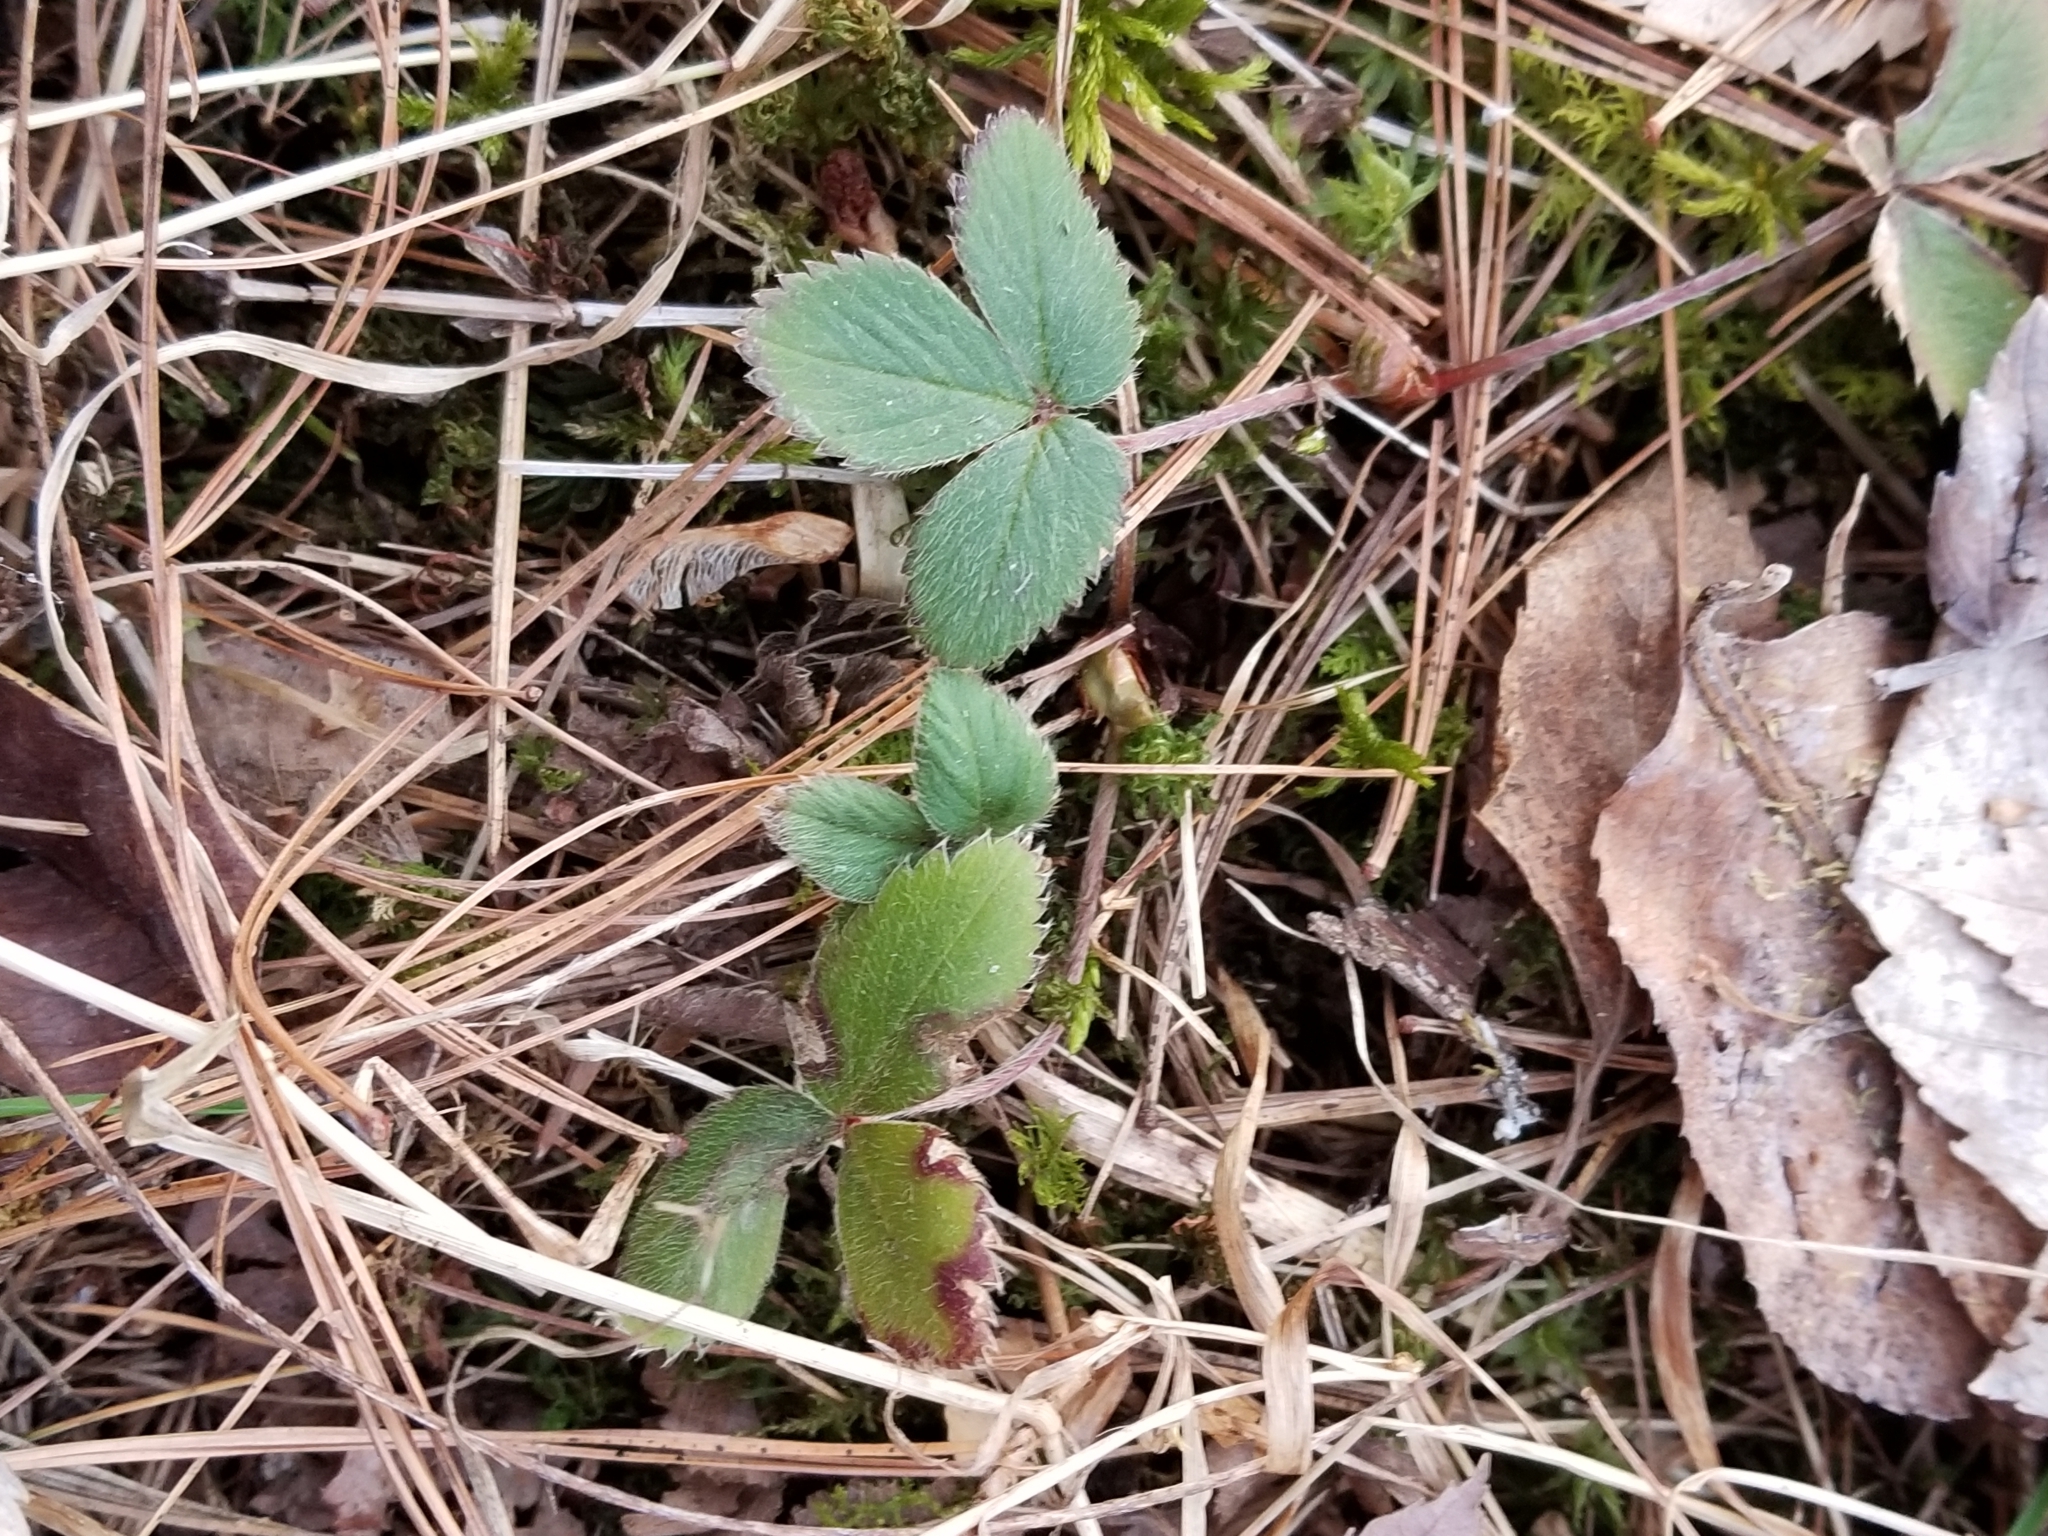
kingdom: Plantae
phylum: Tracheophyta
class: Magnoliopsida
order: Rosales
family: Rosaceae
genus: Fragaria
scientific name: Fragaria virginiana
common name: Thickleaved wild strawberry
